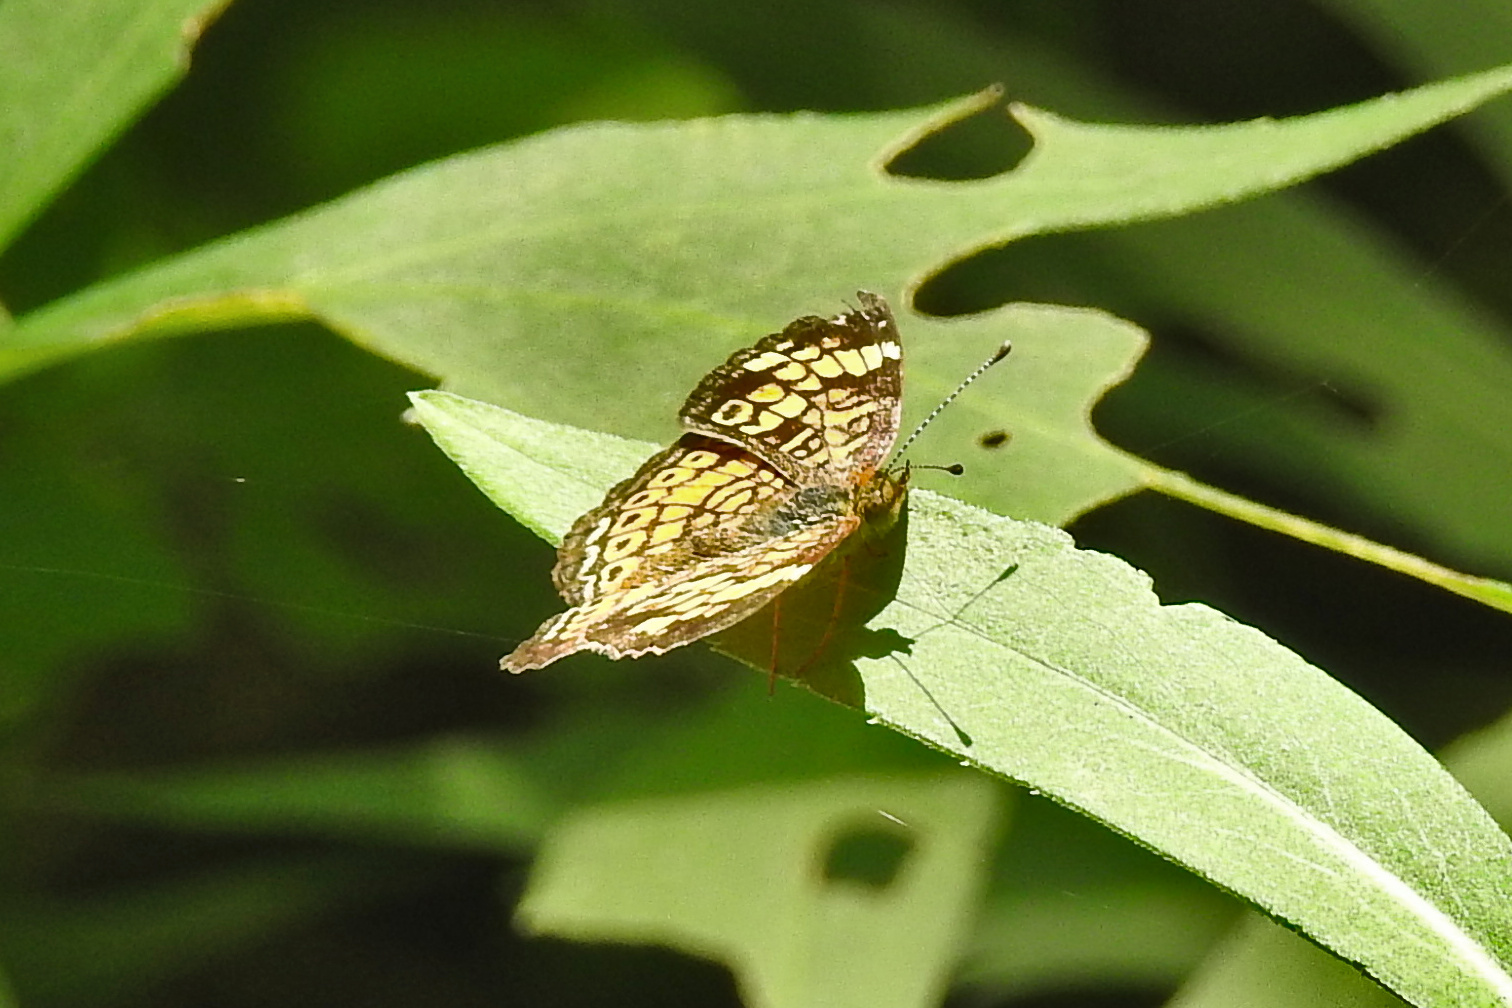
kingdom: Animalia
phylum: Arthropoda
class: Insecta
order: Lepidoptera
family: Nymphalidae
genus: Phyciodes
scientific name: Phyciodes tharos
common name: Pearl crescent
